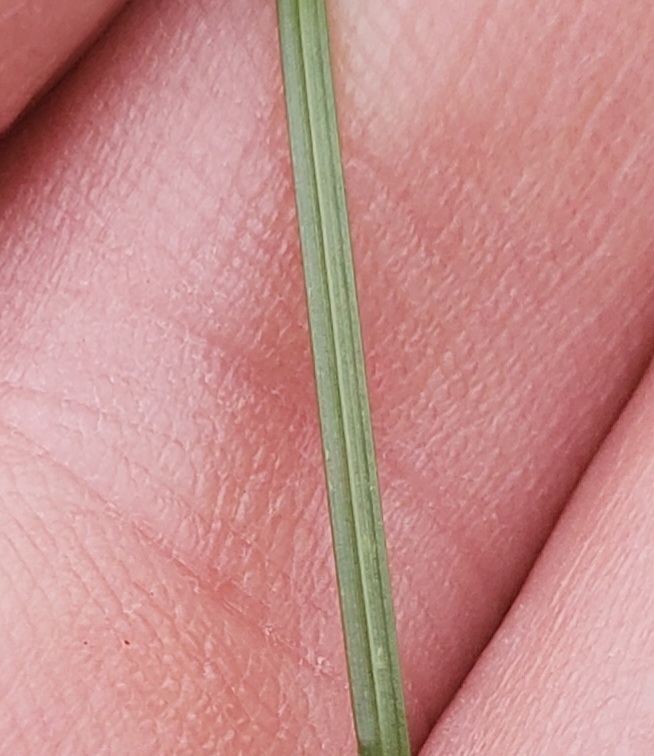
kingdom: Plantae
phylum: Tracheophyta
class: Liliopsida
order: Poales
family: Cyperaceae
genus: Carex
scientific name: Carex muehlenbergii
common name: Muhlenberg's bracted sedge
